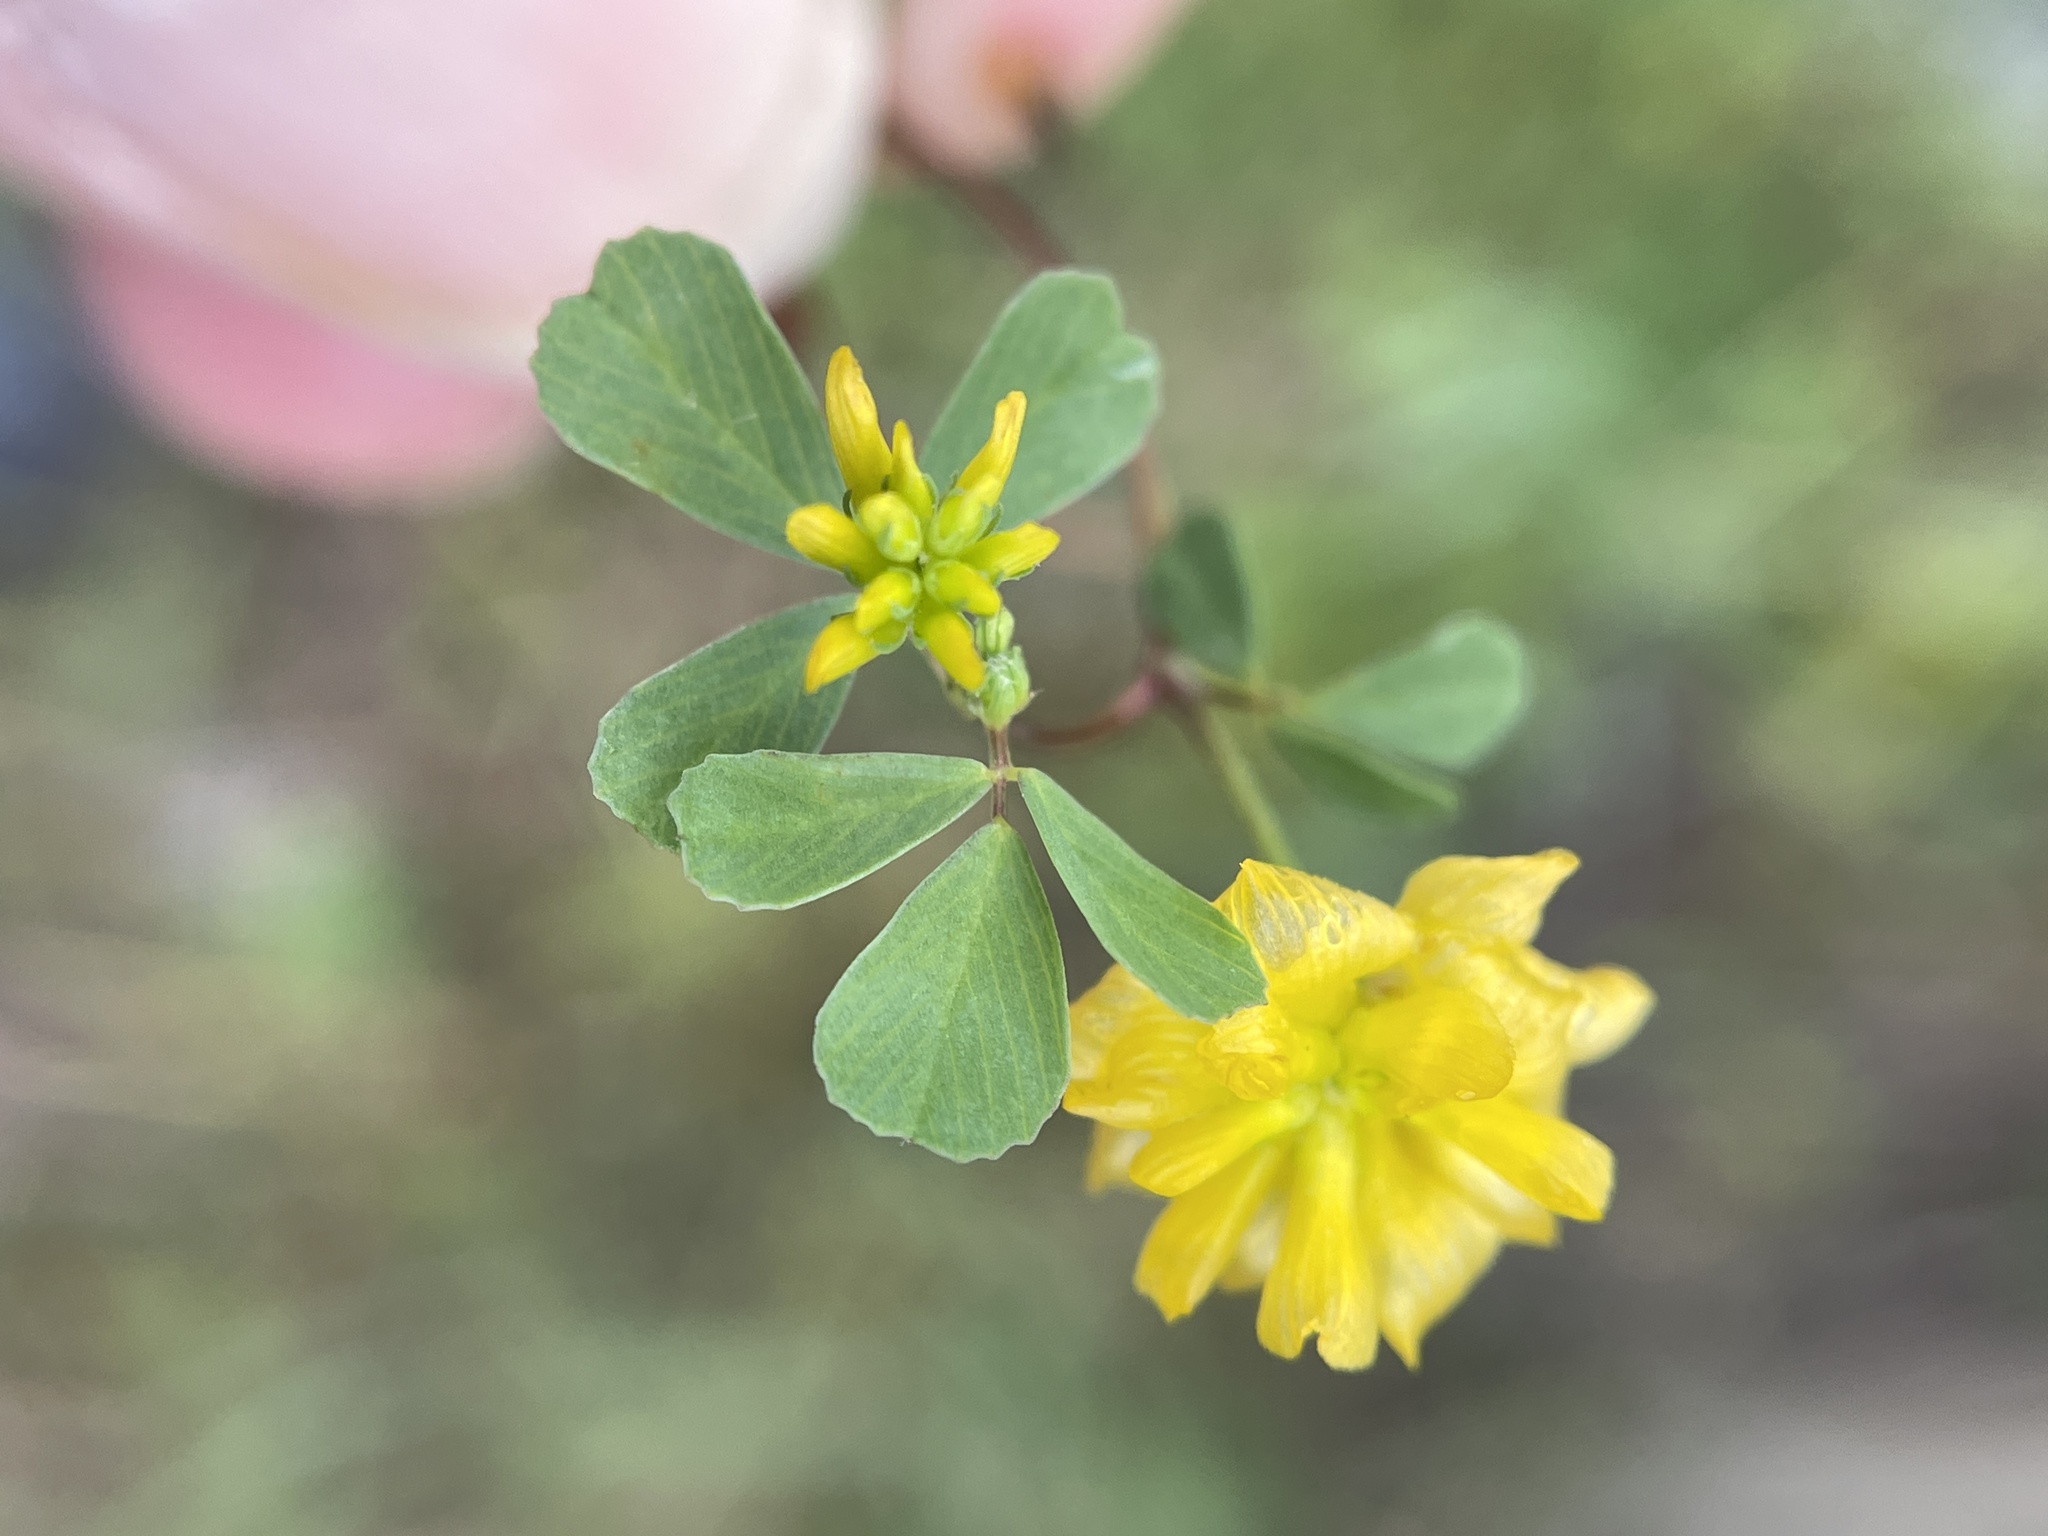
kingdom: Plantae
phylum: Tracheophyta
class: Magnoliopsida
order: Fabales
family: Fabaceae
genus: Trifolium
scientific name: Trifolium campestre
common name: Field clover
